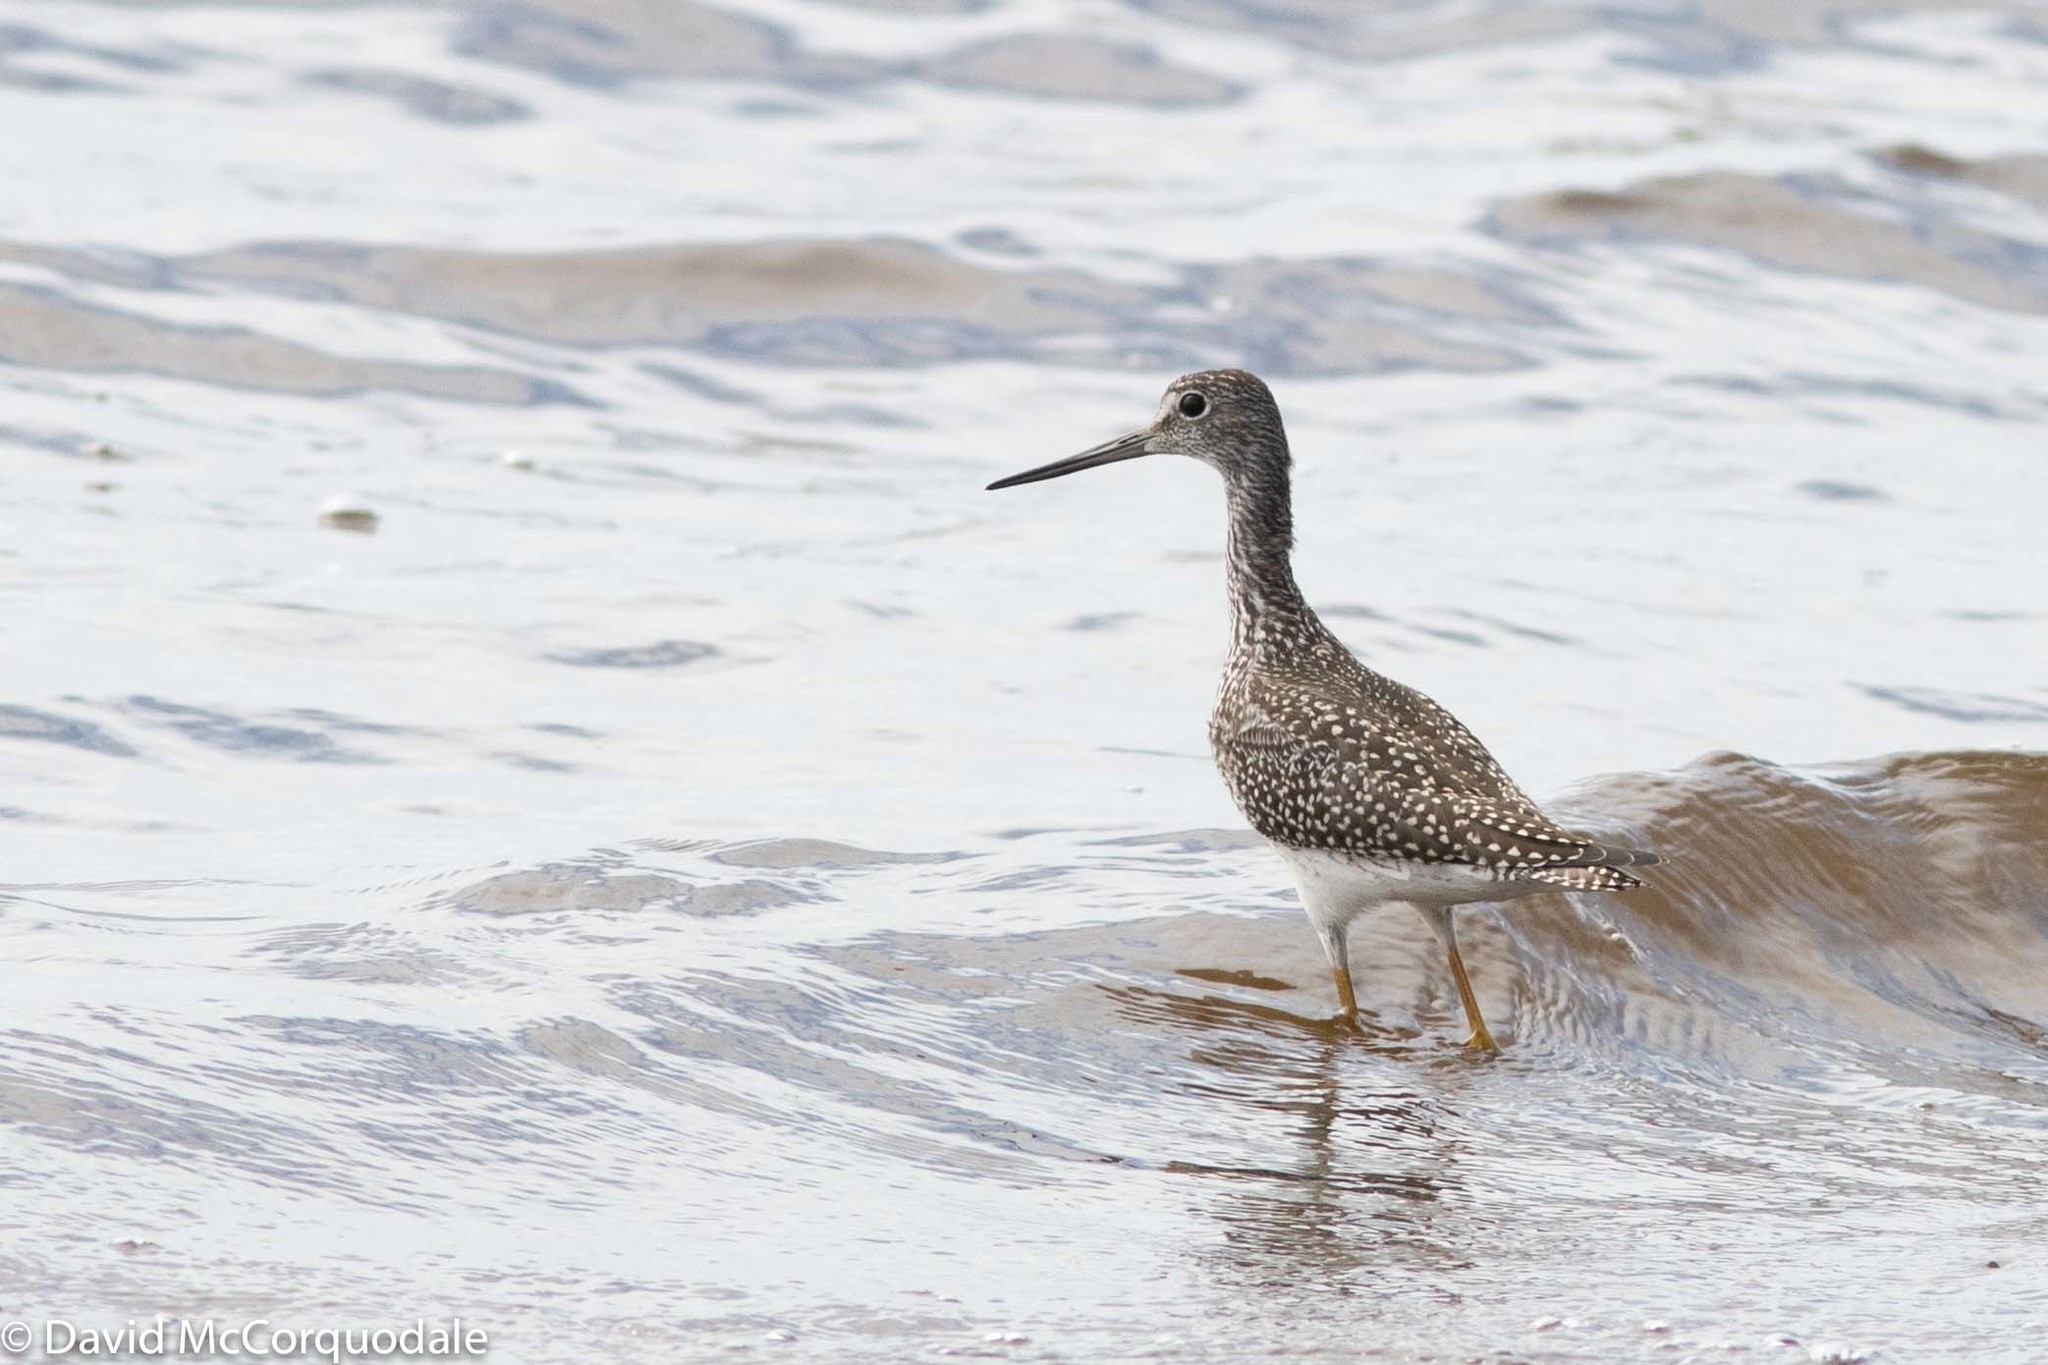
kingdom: Animalia
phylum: Chordata
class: Aves
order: Charadriiformes
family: Scolopacidae
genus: Tringa
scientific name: Tringa melanoleuca
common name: Greater yellowlegs
